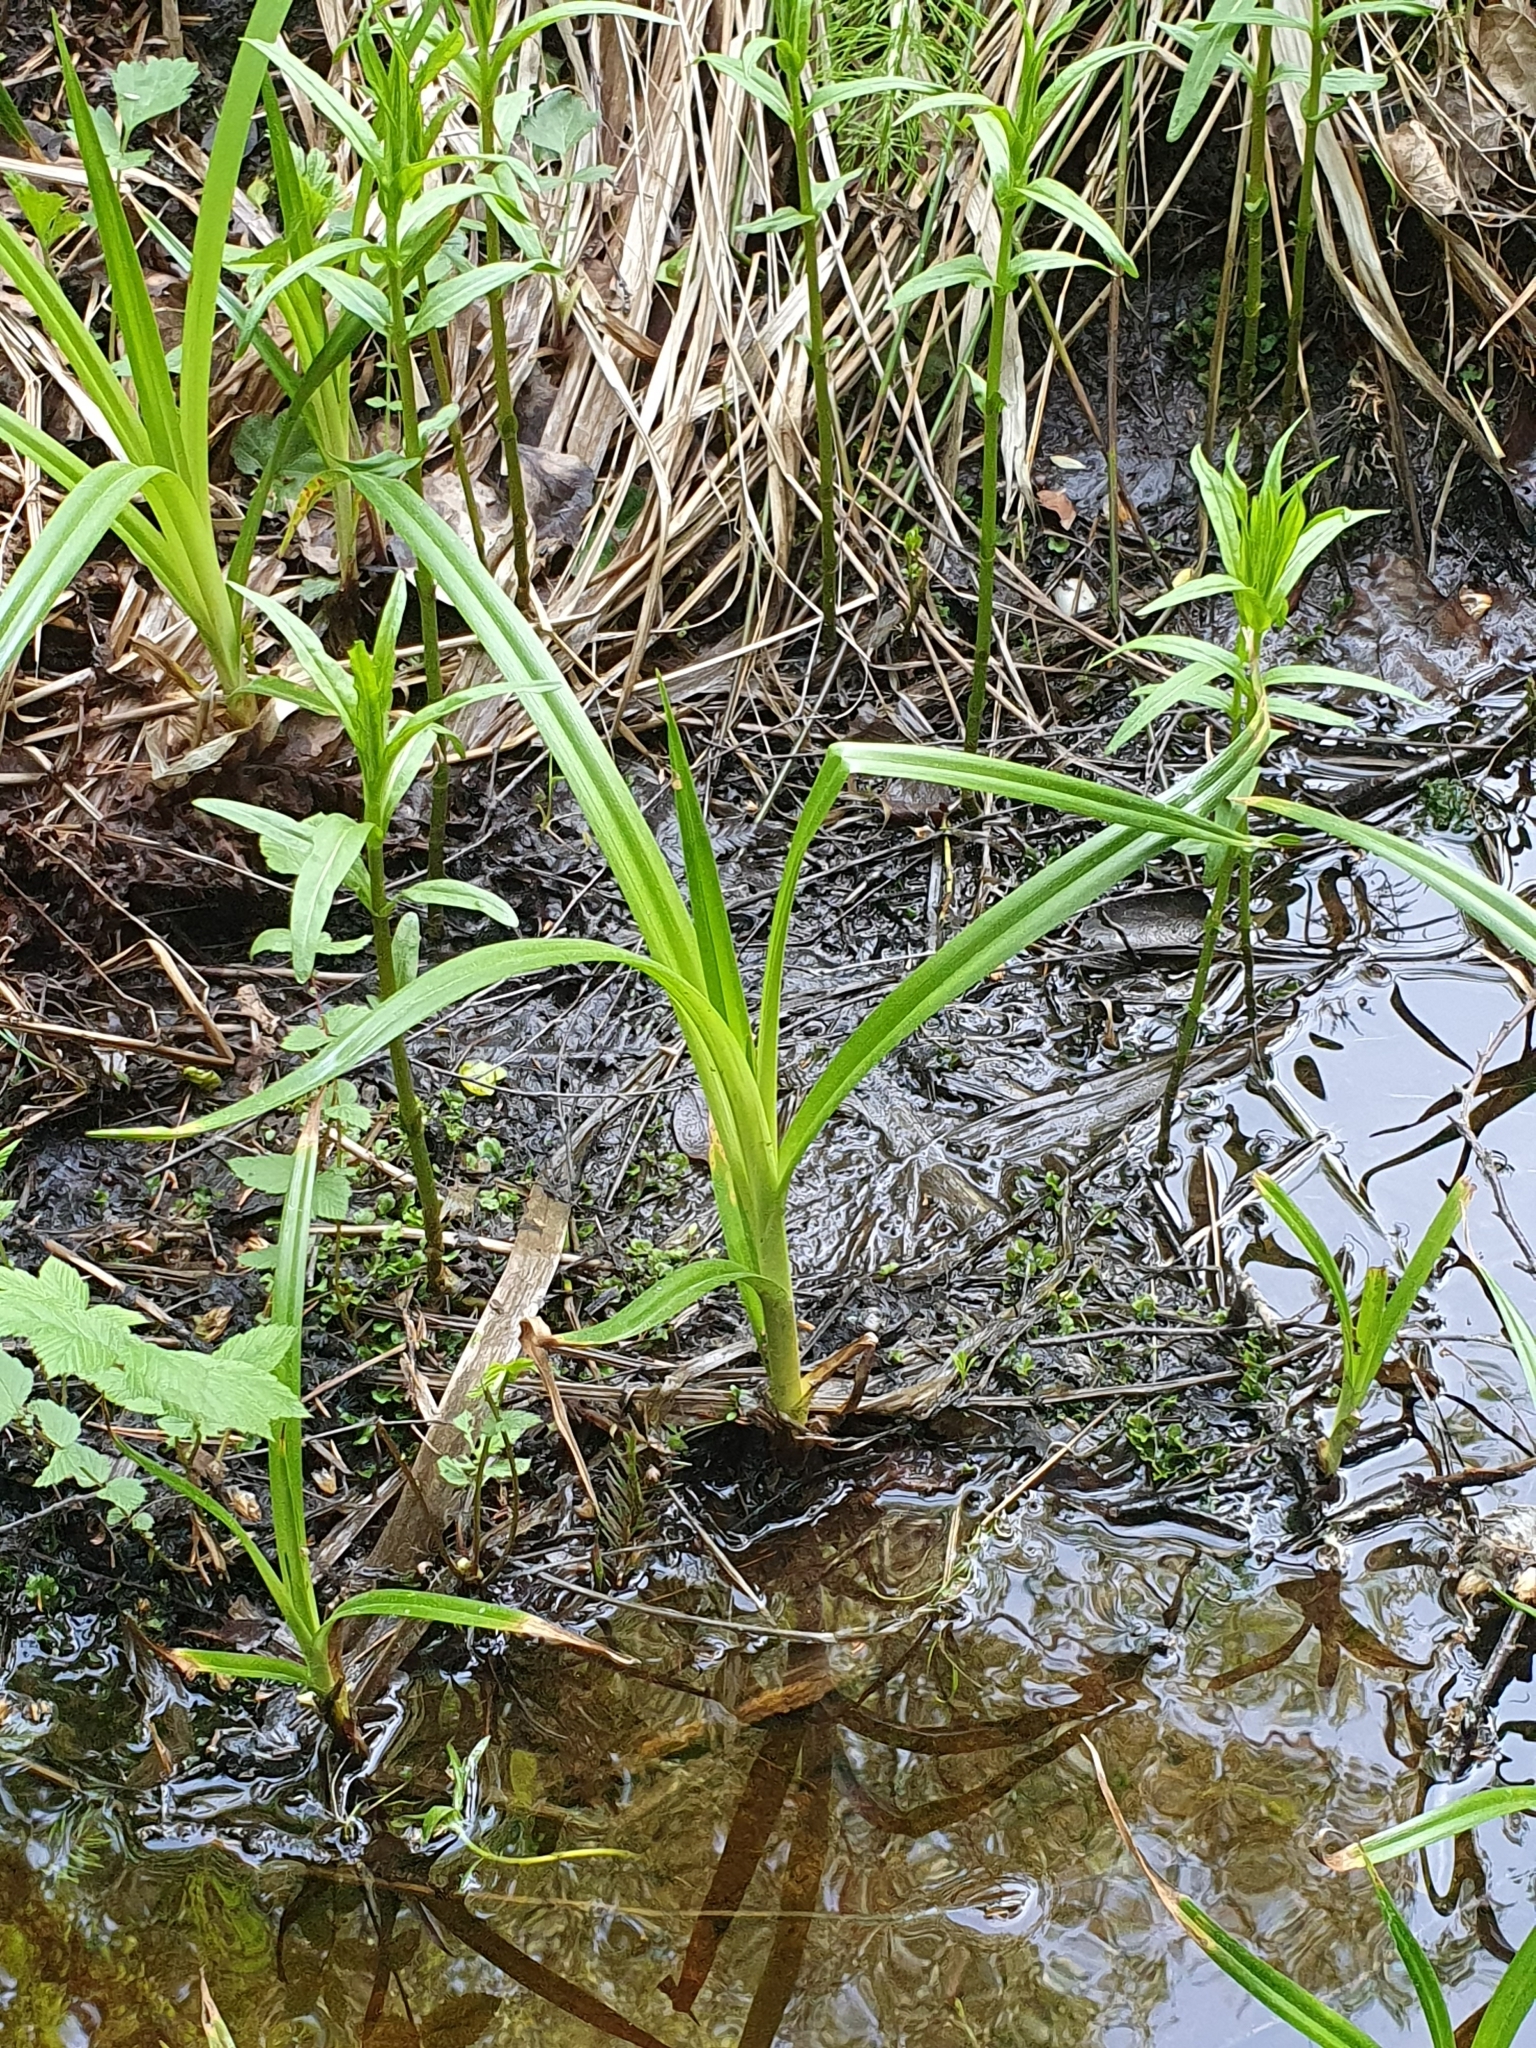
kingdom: Plantae
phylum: Tracheophyta
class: Liliopsida
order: Poales
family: Cyperaceae
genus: Scirpus
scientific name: Scirpus sylvaticus
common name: Wood club-rush
